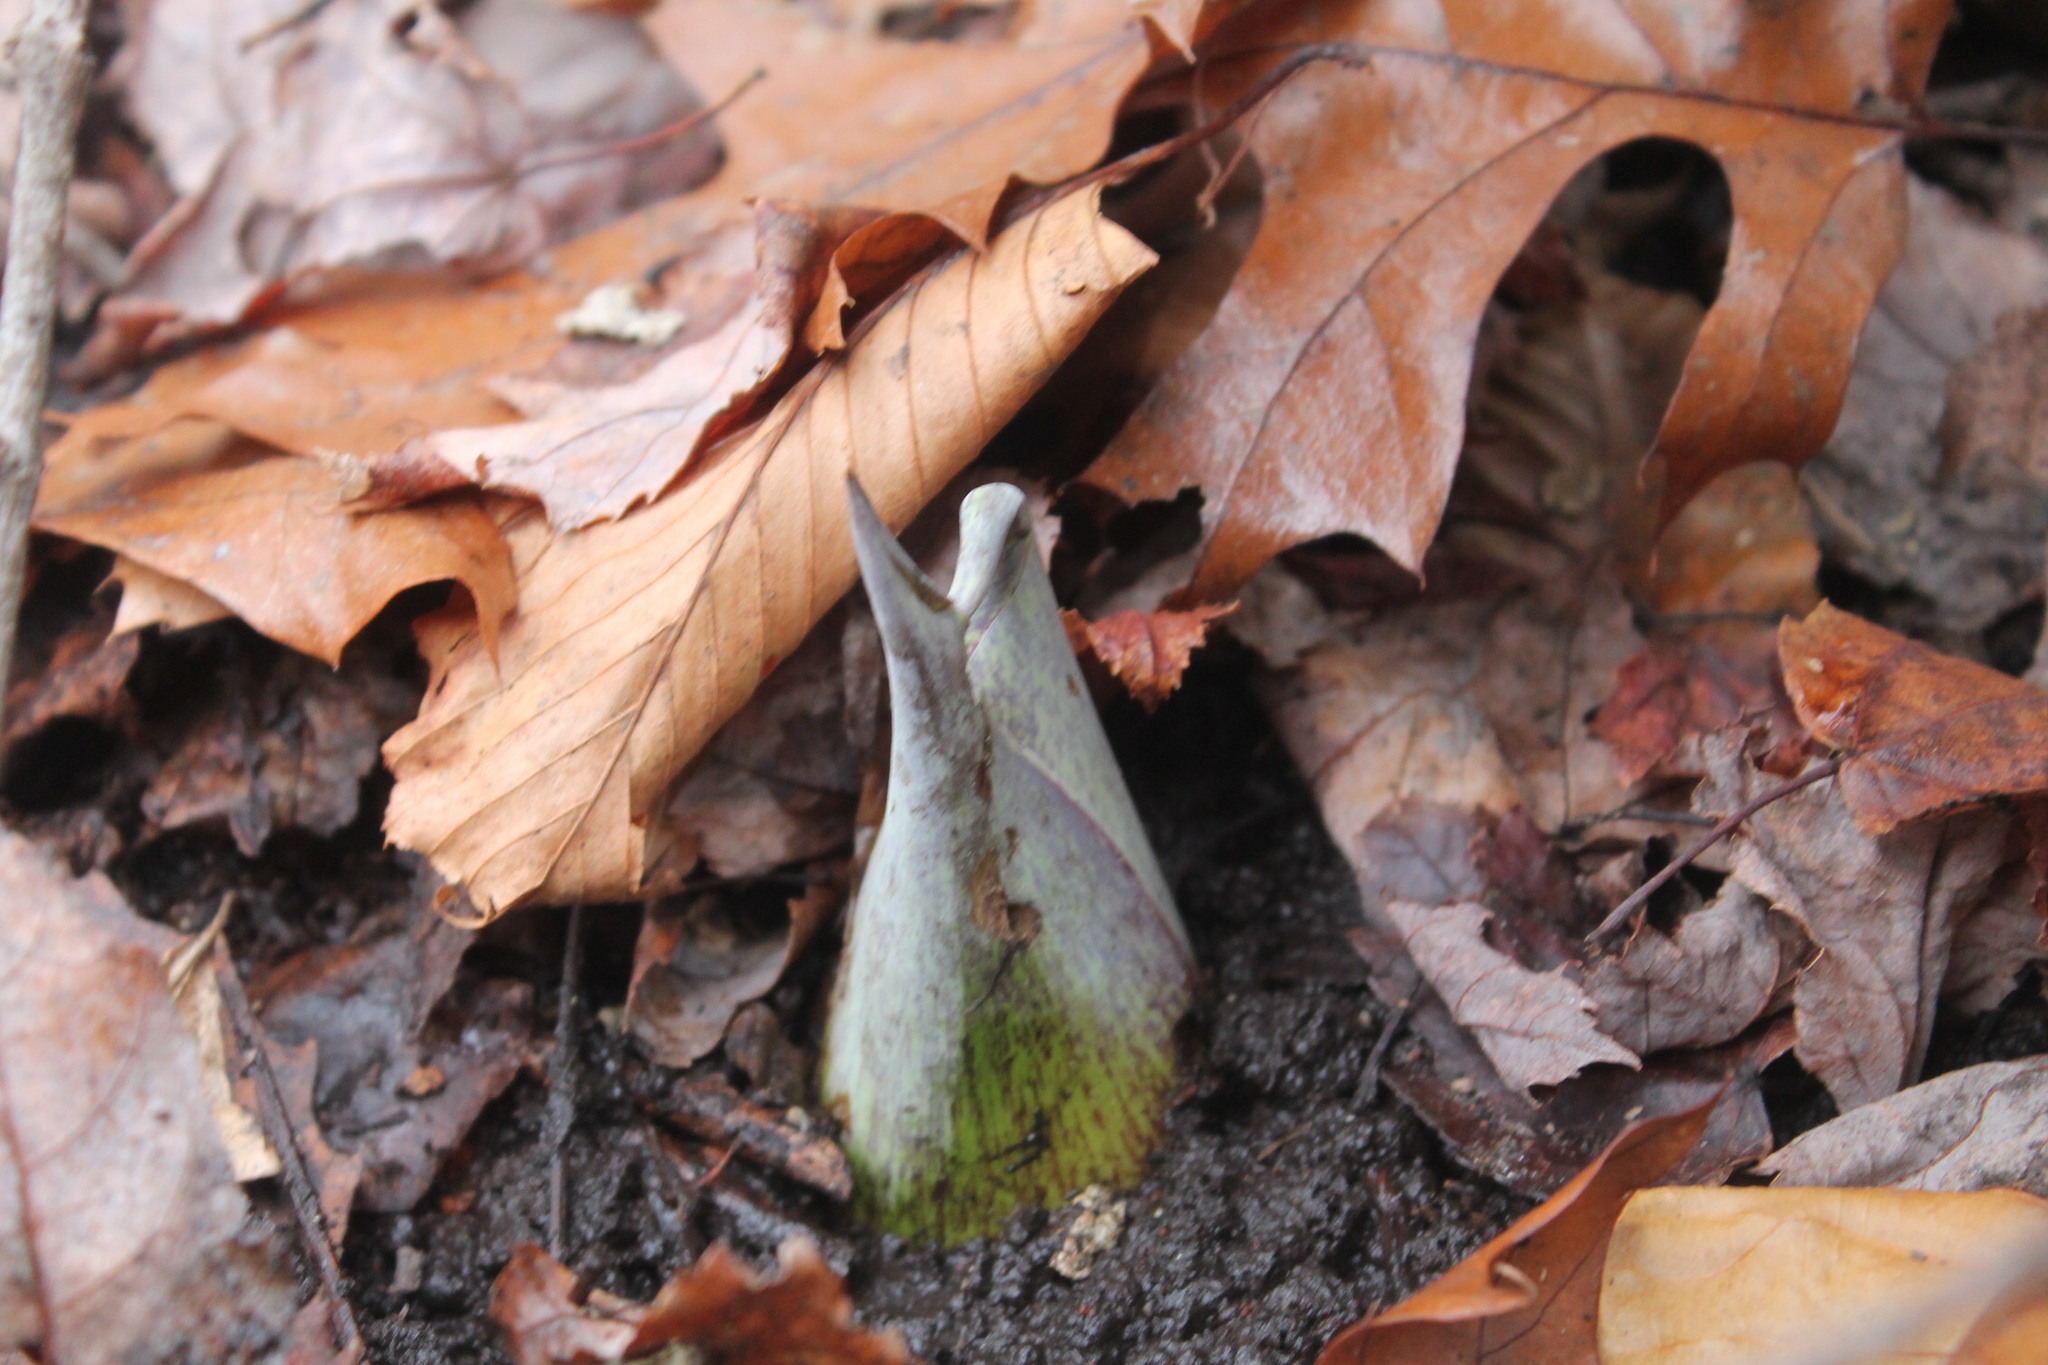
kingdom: Plantae
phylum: Tracheophyta
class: Liliopsida
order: Alismatales
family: Araceae
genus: Symplocarpus
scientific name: Symplocarpus foetidus
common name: Eastern skunk cabbage
